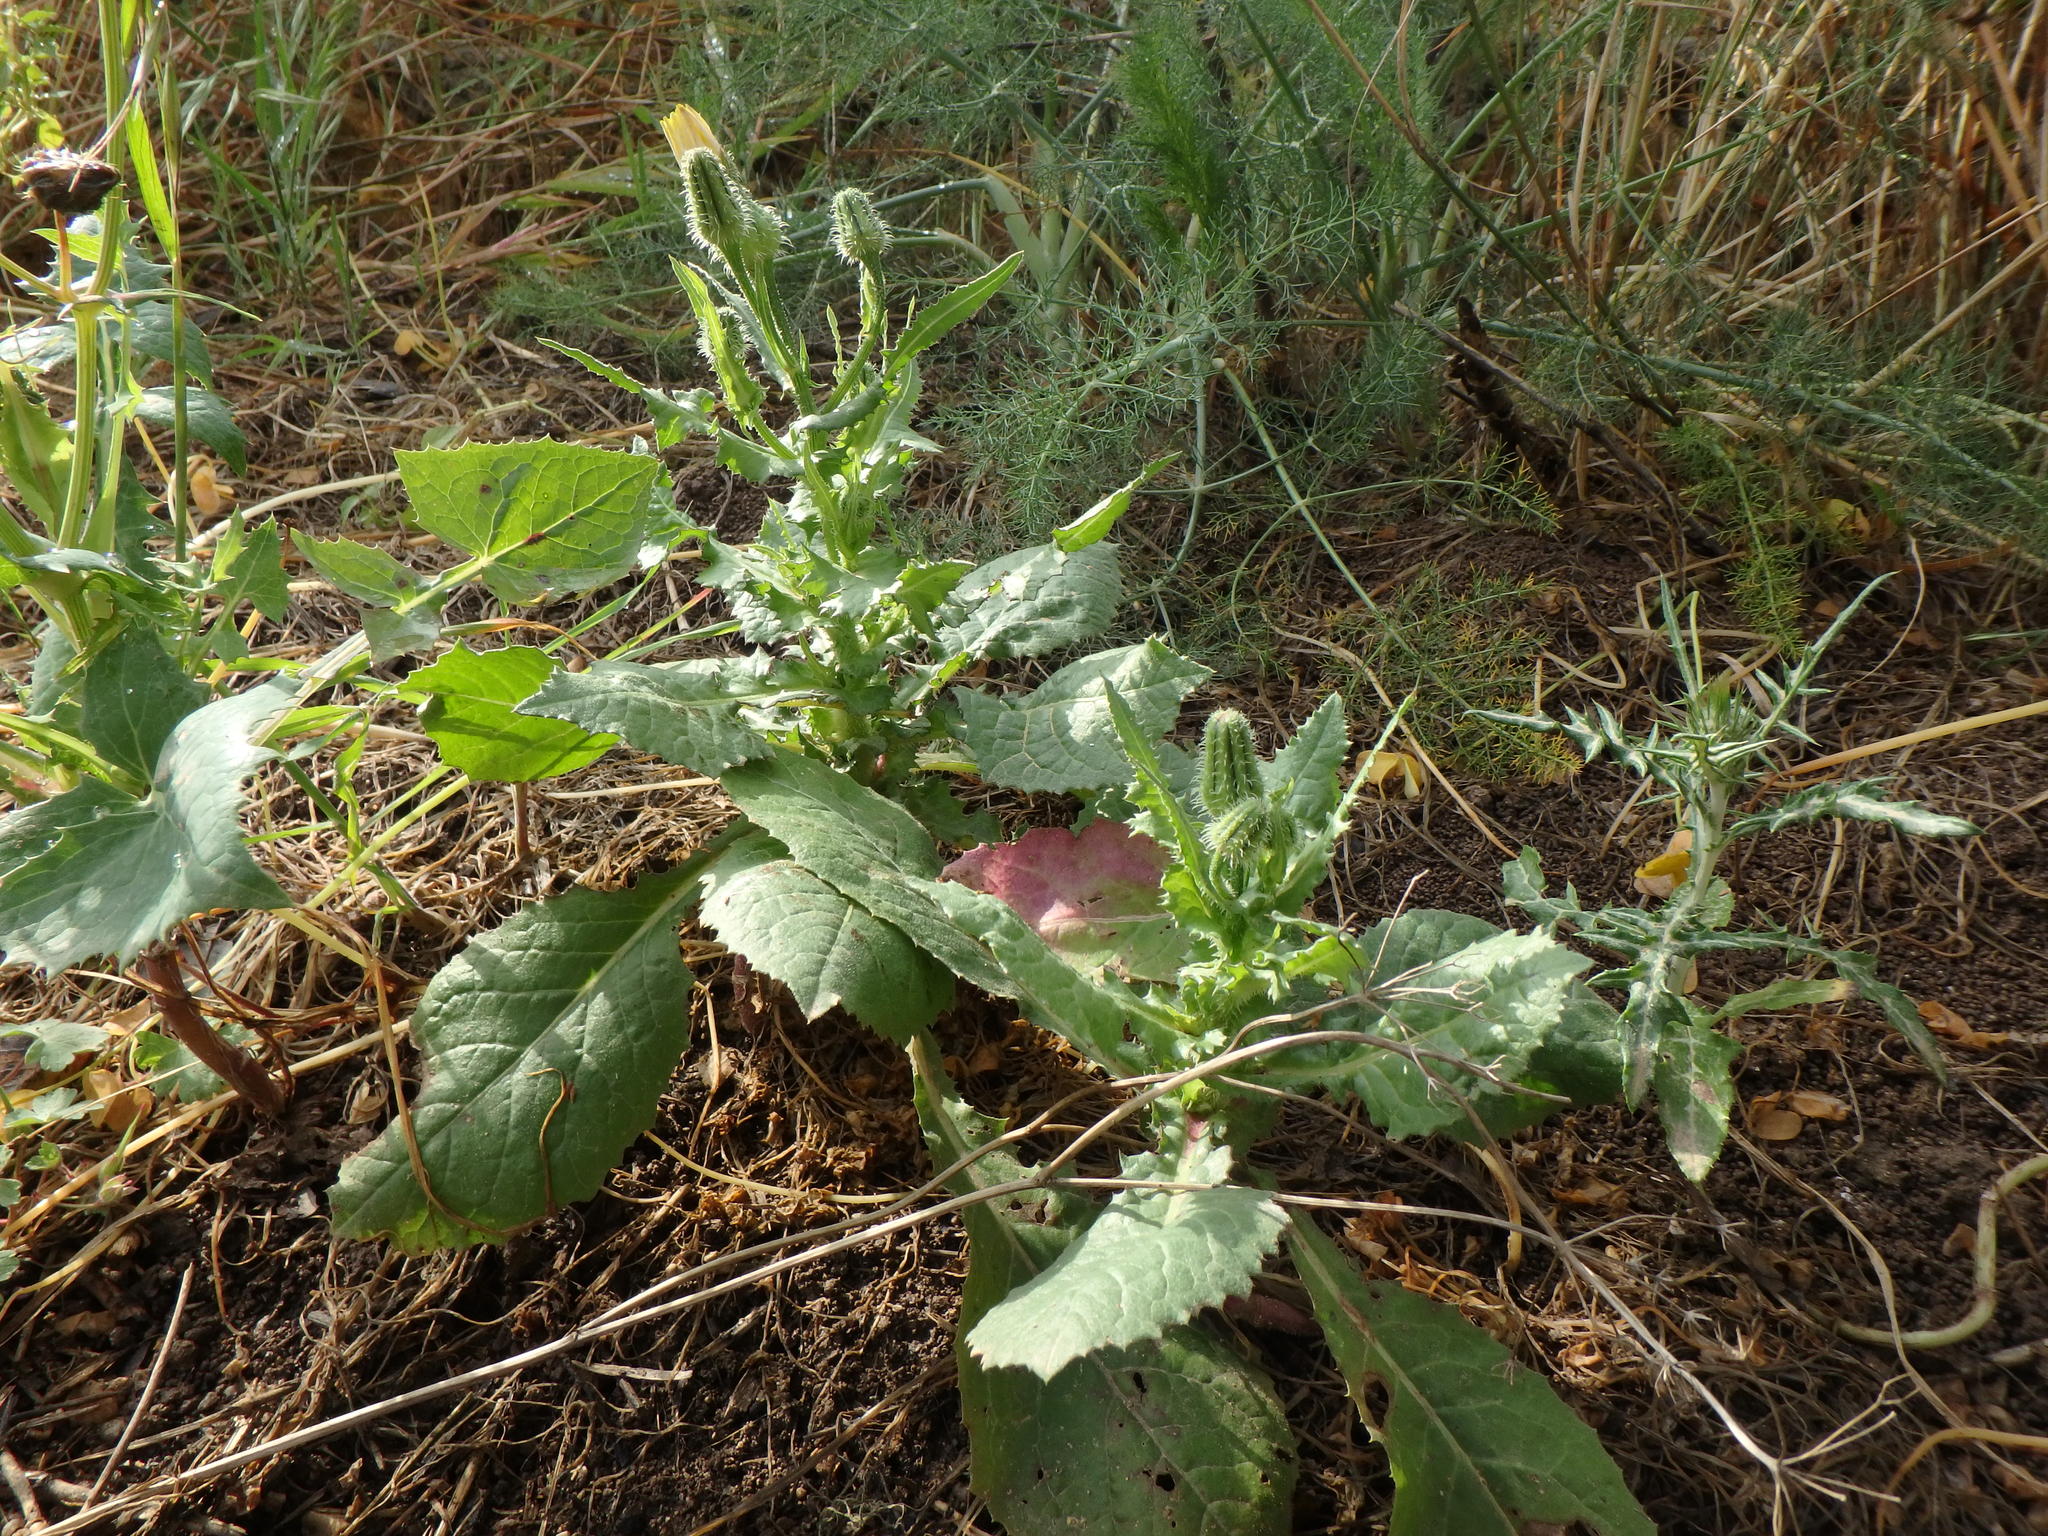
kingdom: Plantae
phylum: Tracheophyta
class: Magnoliopsida
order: Asterales
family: Asteraceae
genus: Urospermum
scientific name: Urospermum picroides
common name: False hawkbit
